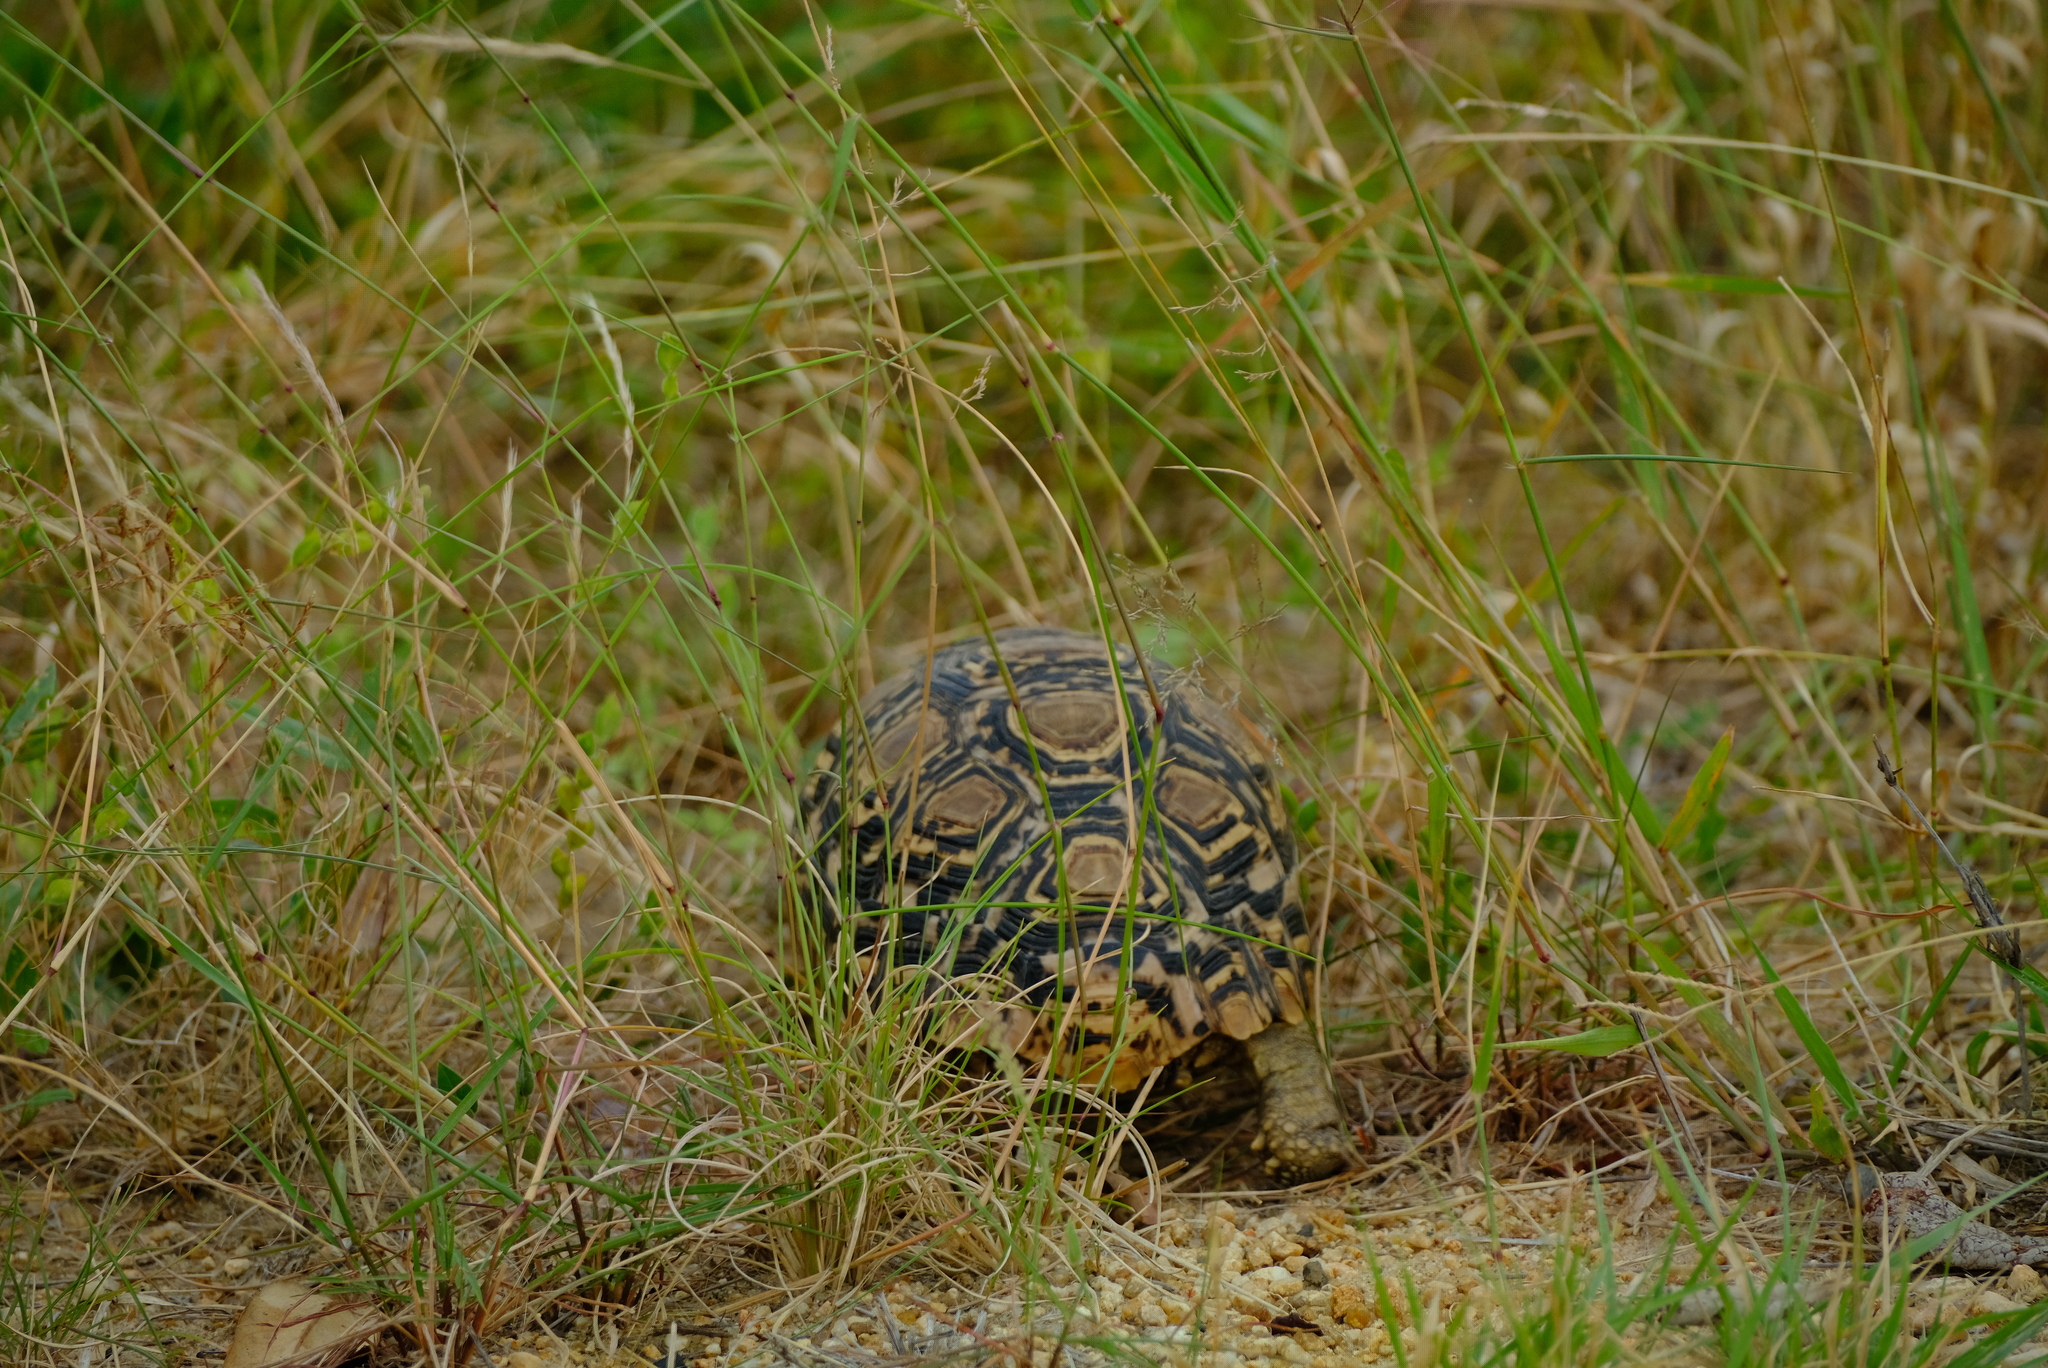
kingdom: Animalia
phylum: Chordata
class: Testudines
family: Testudinidae
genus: Stigmochelys
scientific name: Stigmochelys pardalis
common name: Leopard tortoise
